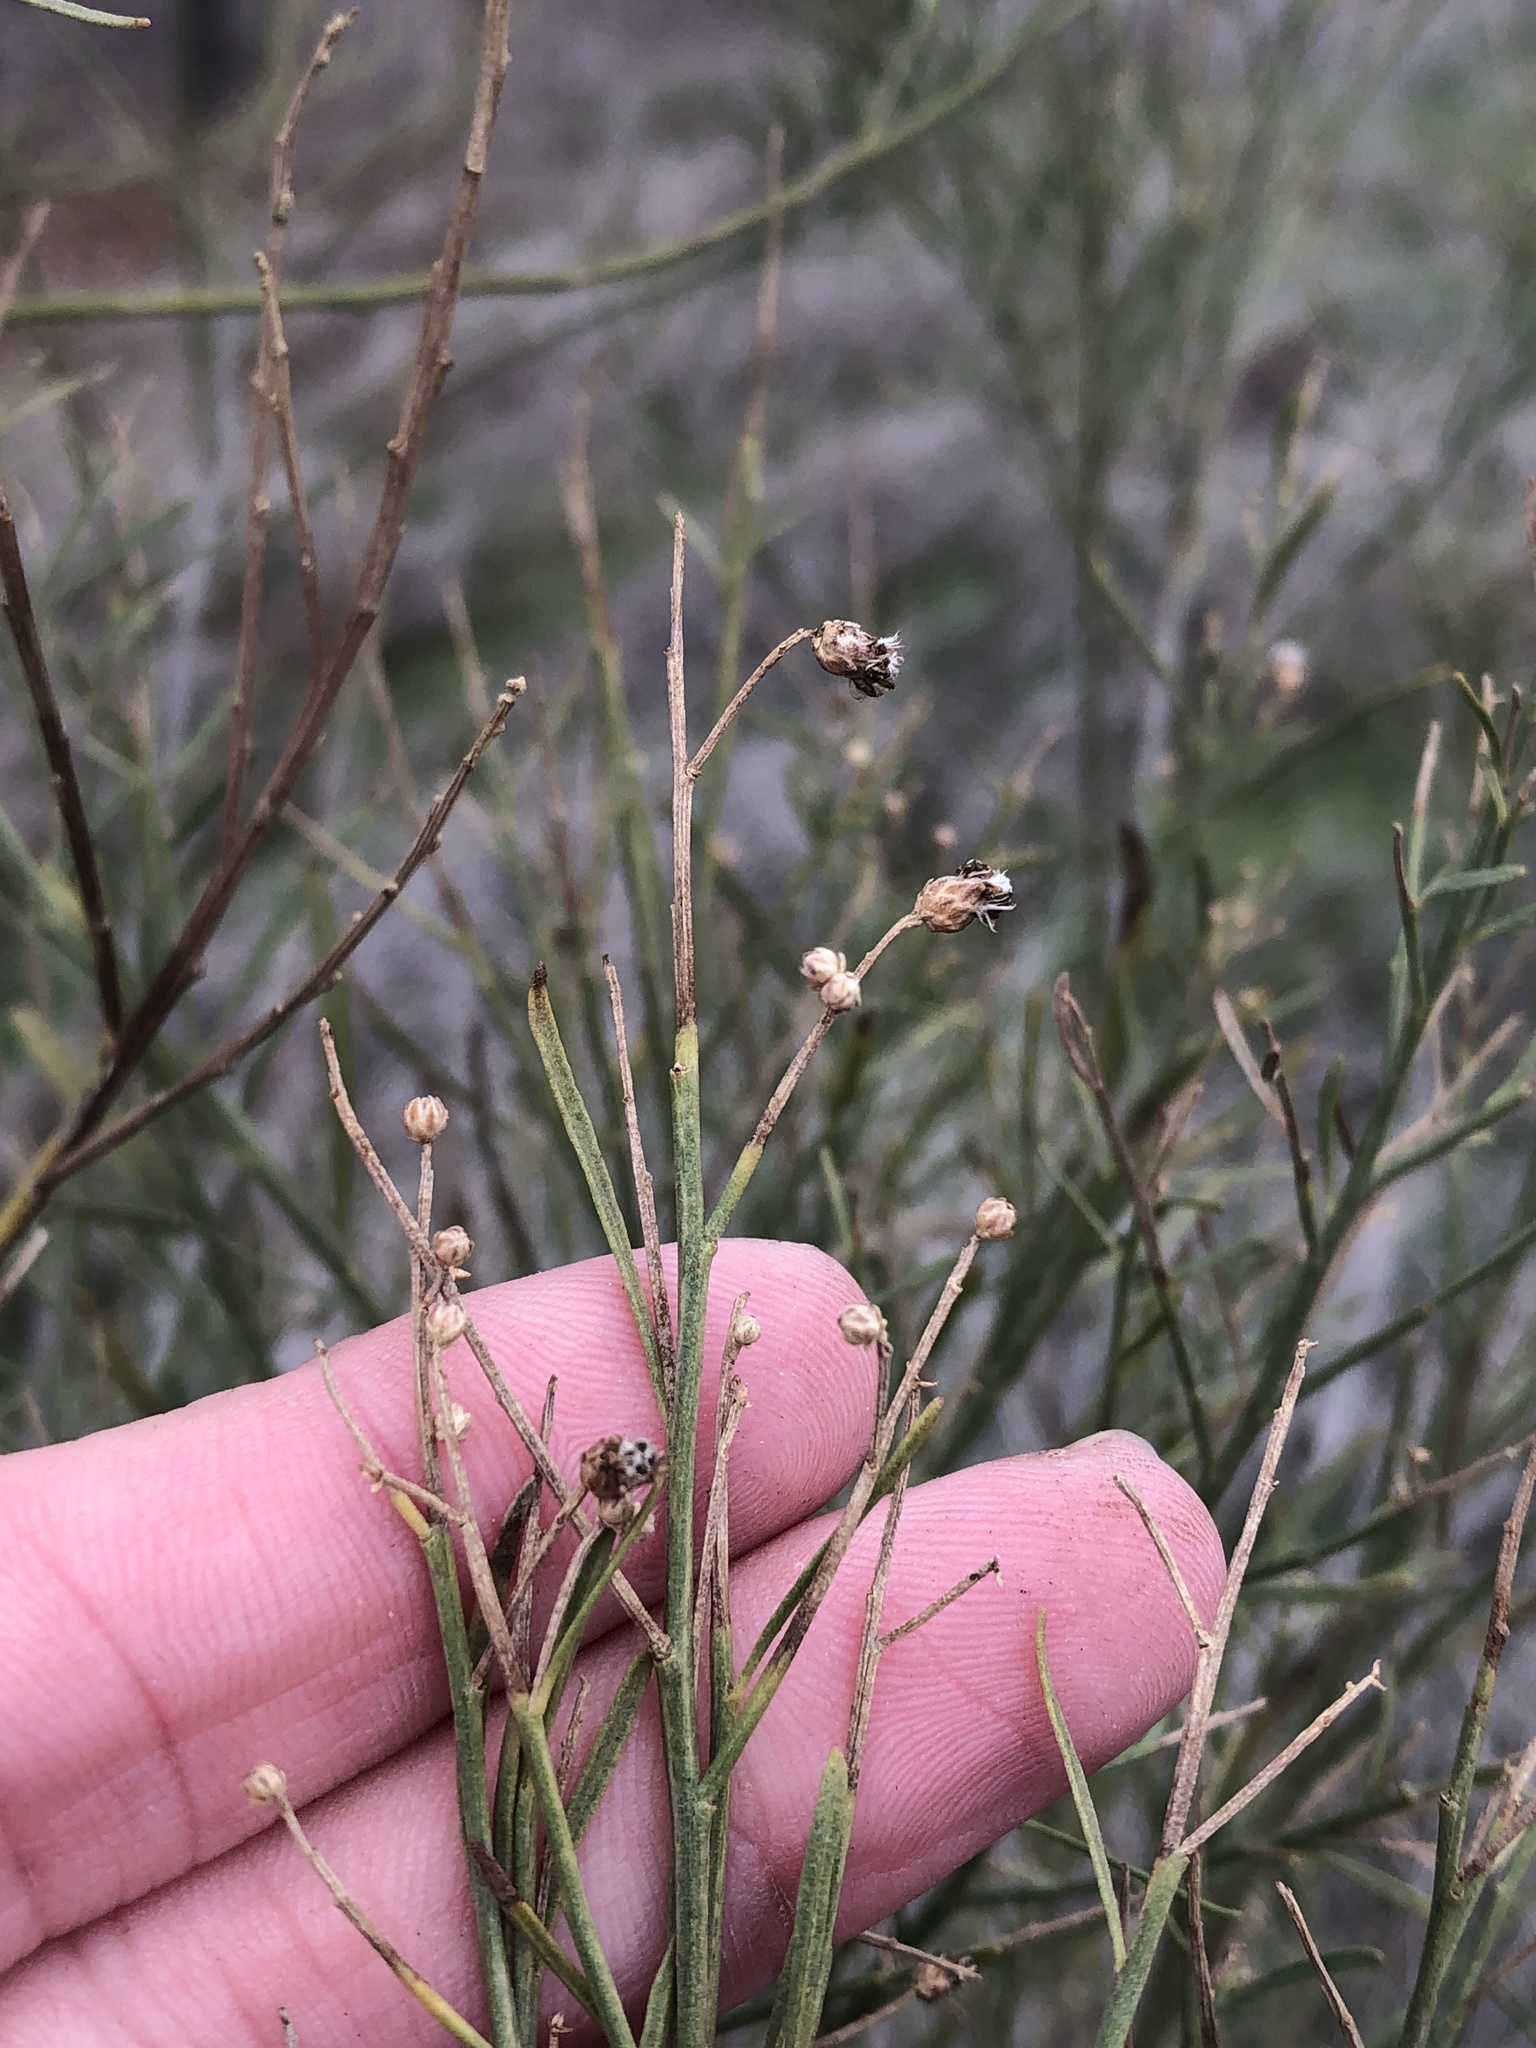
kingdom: Plantae
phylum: Tracheophyta
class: Magnoliopsida
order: Asterales
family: Asteraceae
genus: Baccharis
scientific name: Baccharis neglecta
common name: Roosevelt-weed
